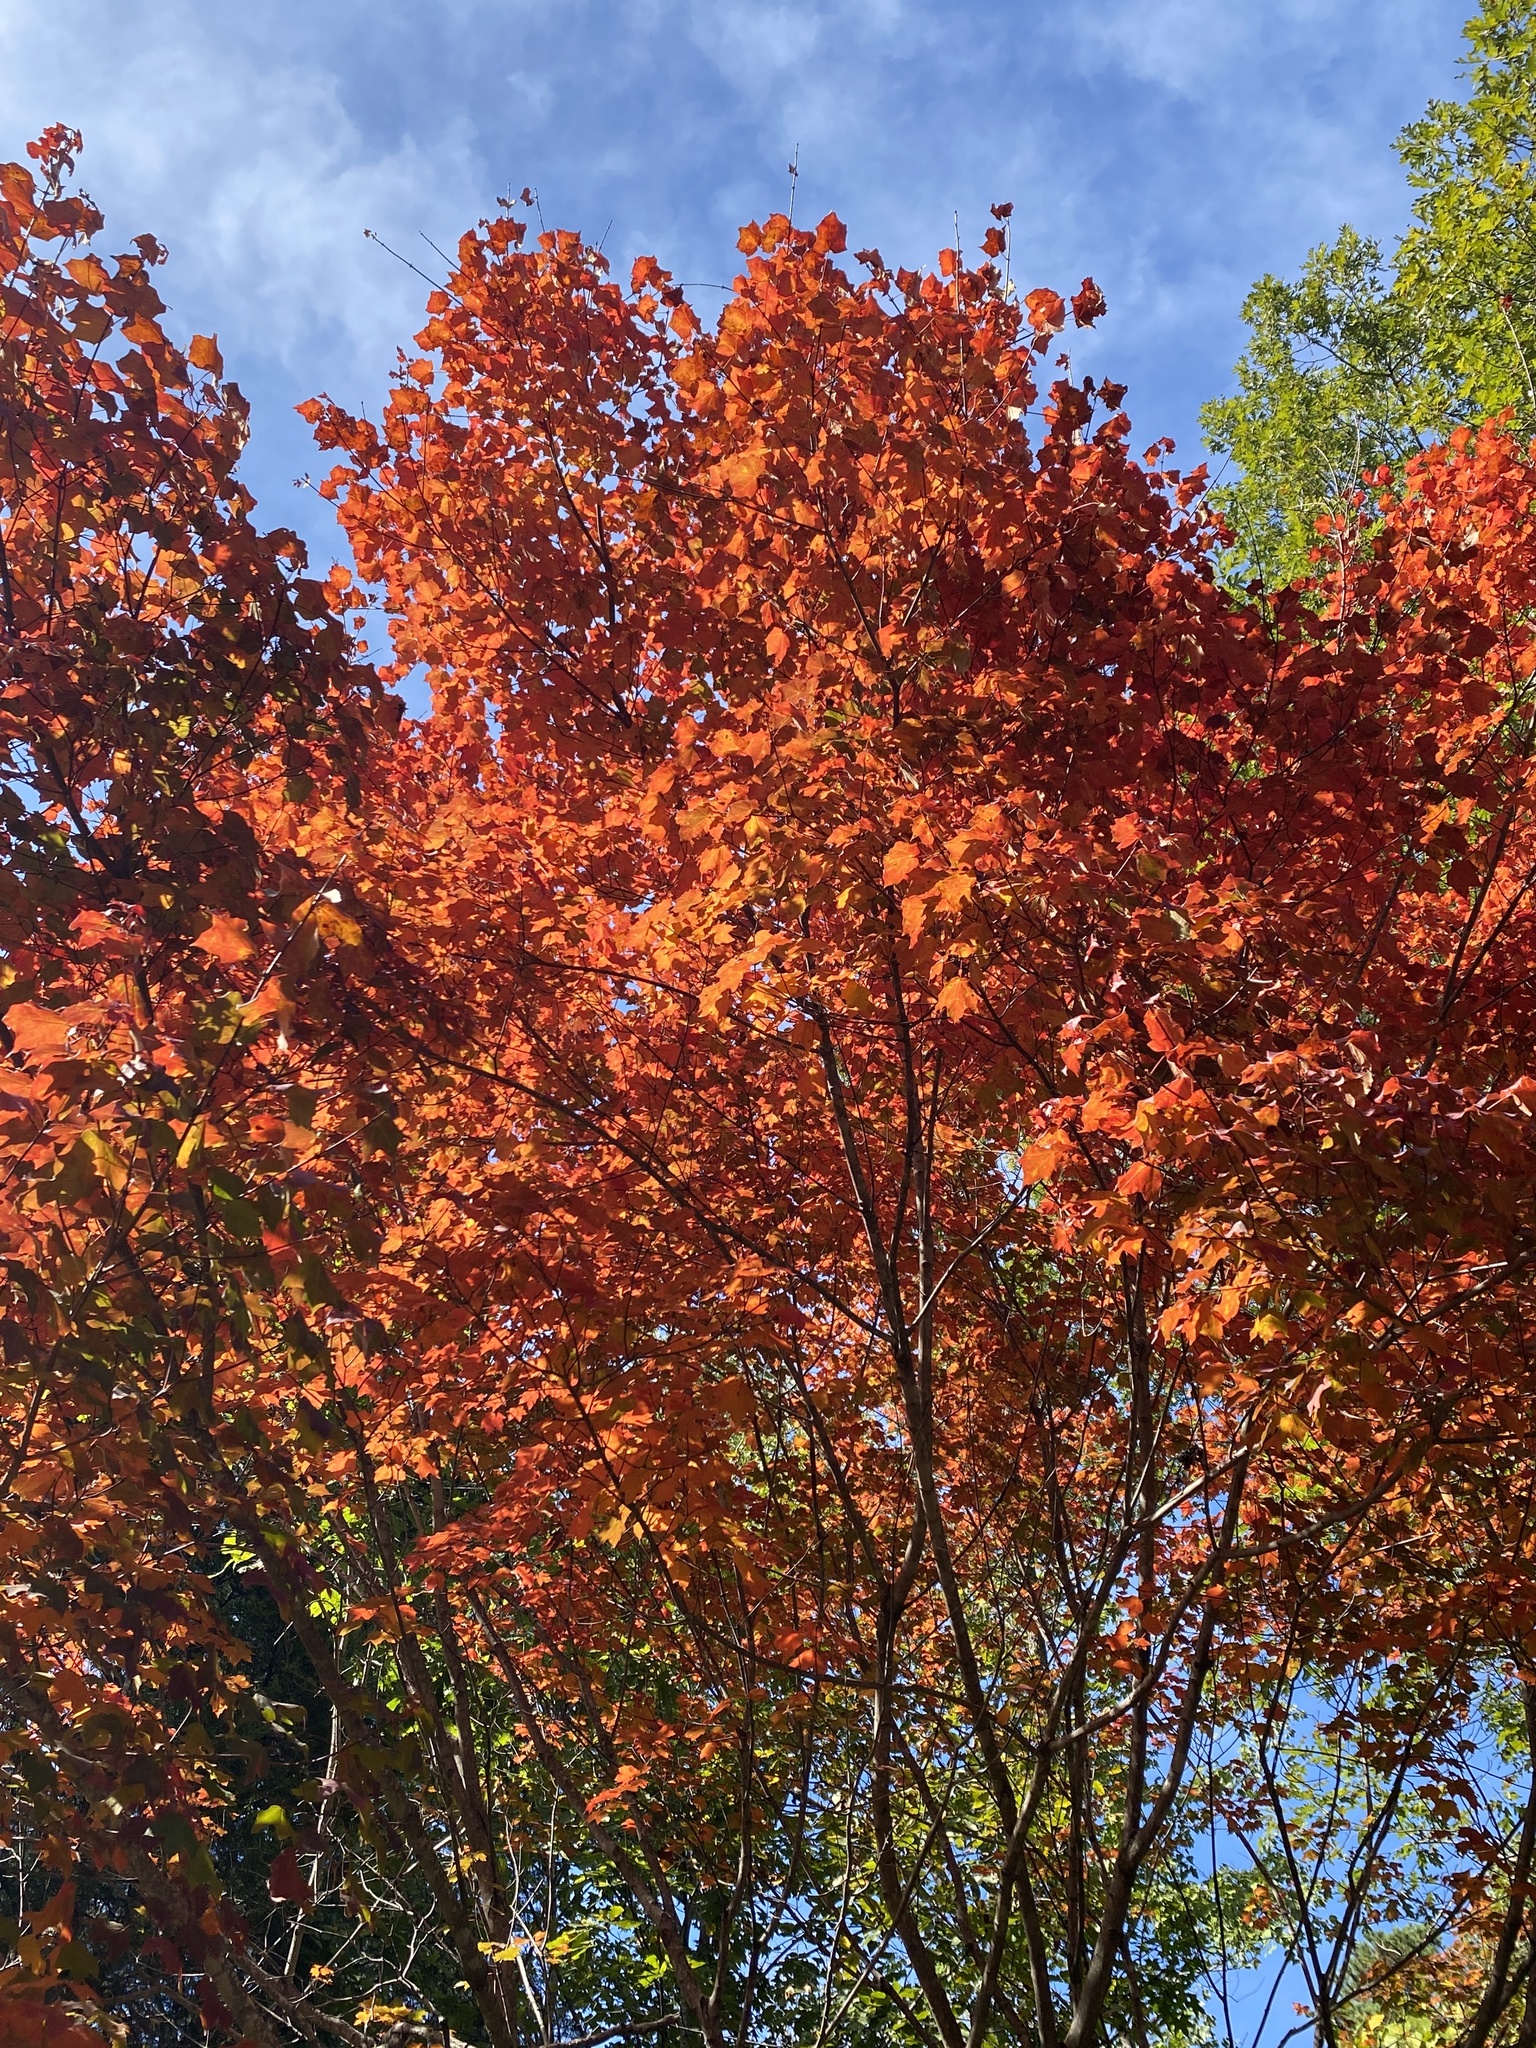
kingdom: Plantae
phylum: Tracheophyta
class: Magnoliopsida
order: Sapindales
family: Sapindaceae
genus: Acer
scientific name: Acer leucoderme
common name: Chalk maple
